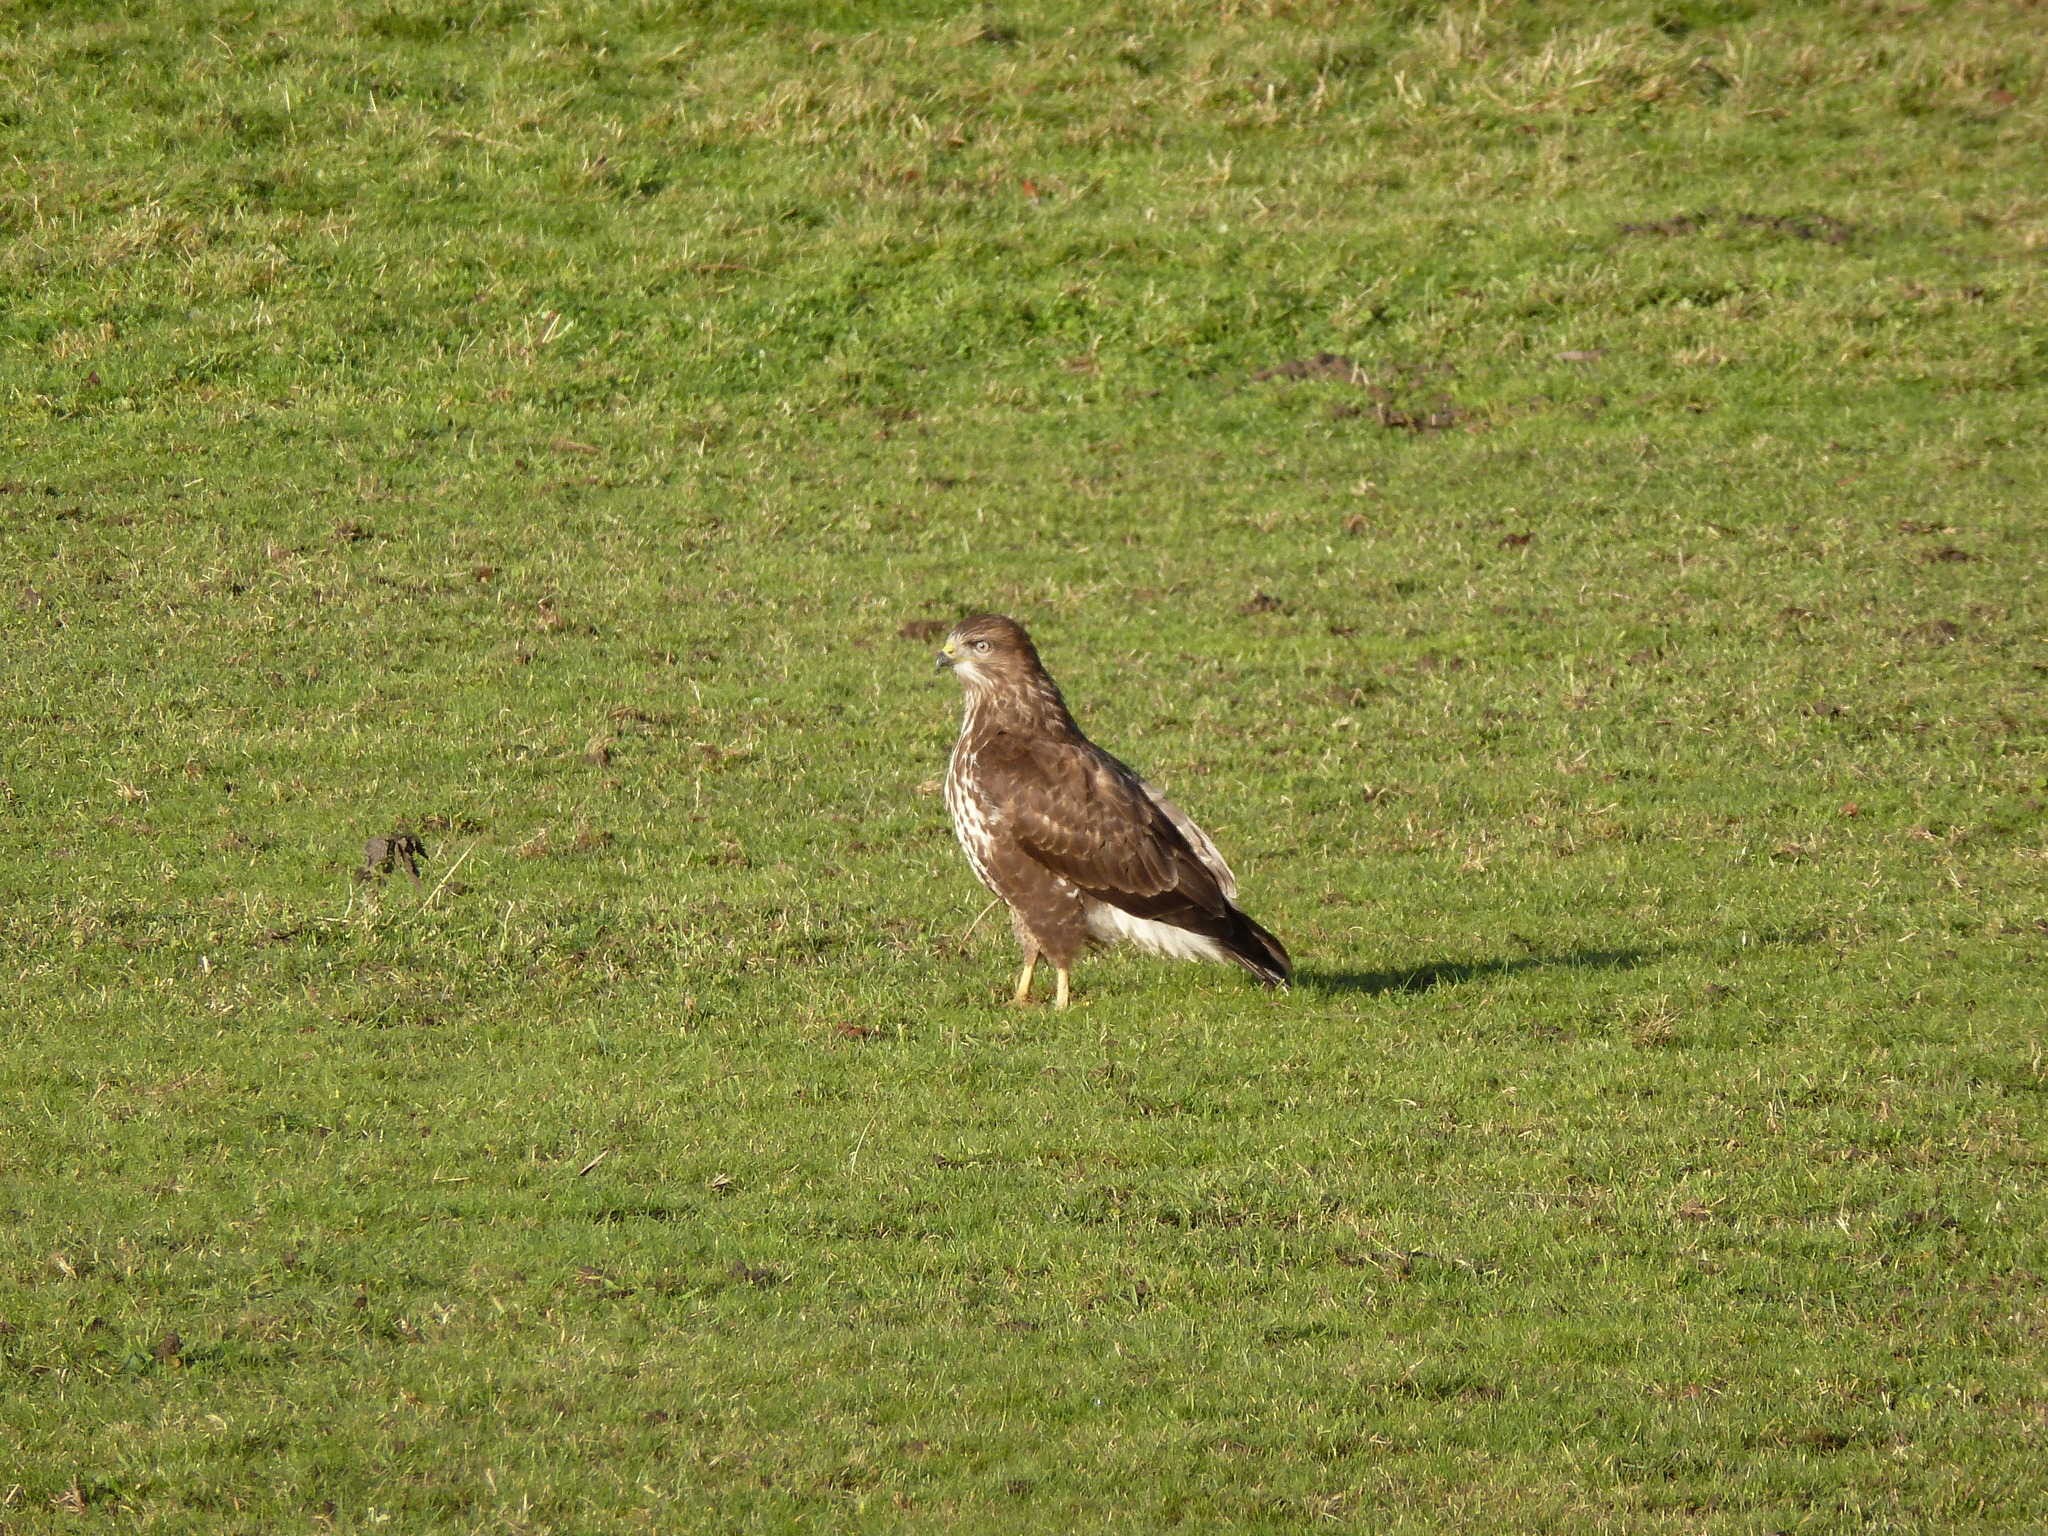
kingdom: Animalia
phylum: Chordata
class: Aves
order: Accipitriformes
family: Accipitridae
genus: Buteo
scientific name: Buteo buteo
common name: Common buzzard
